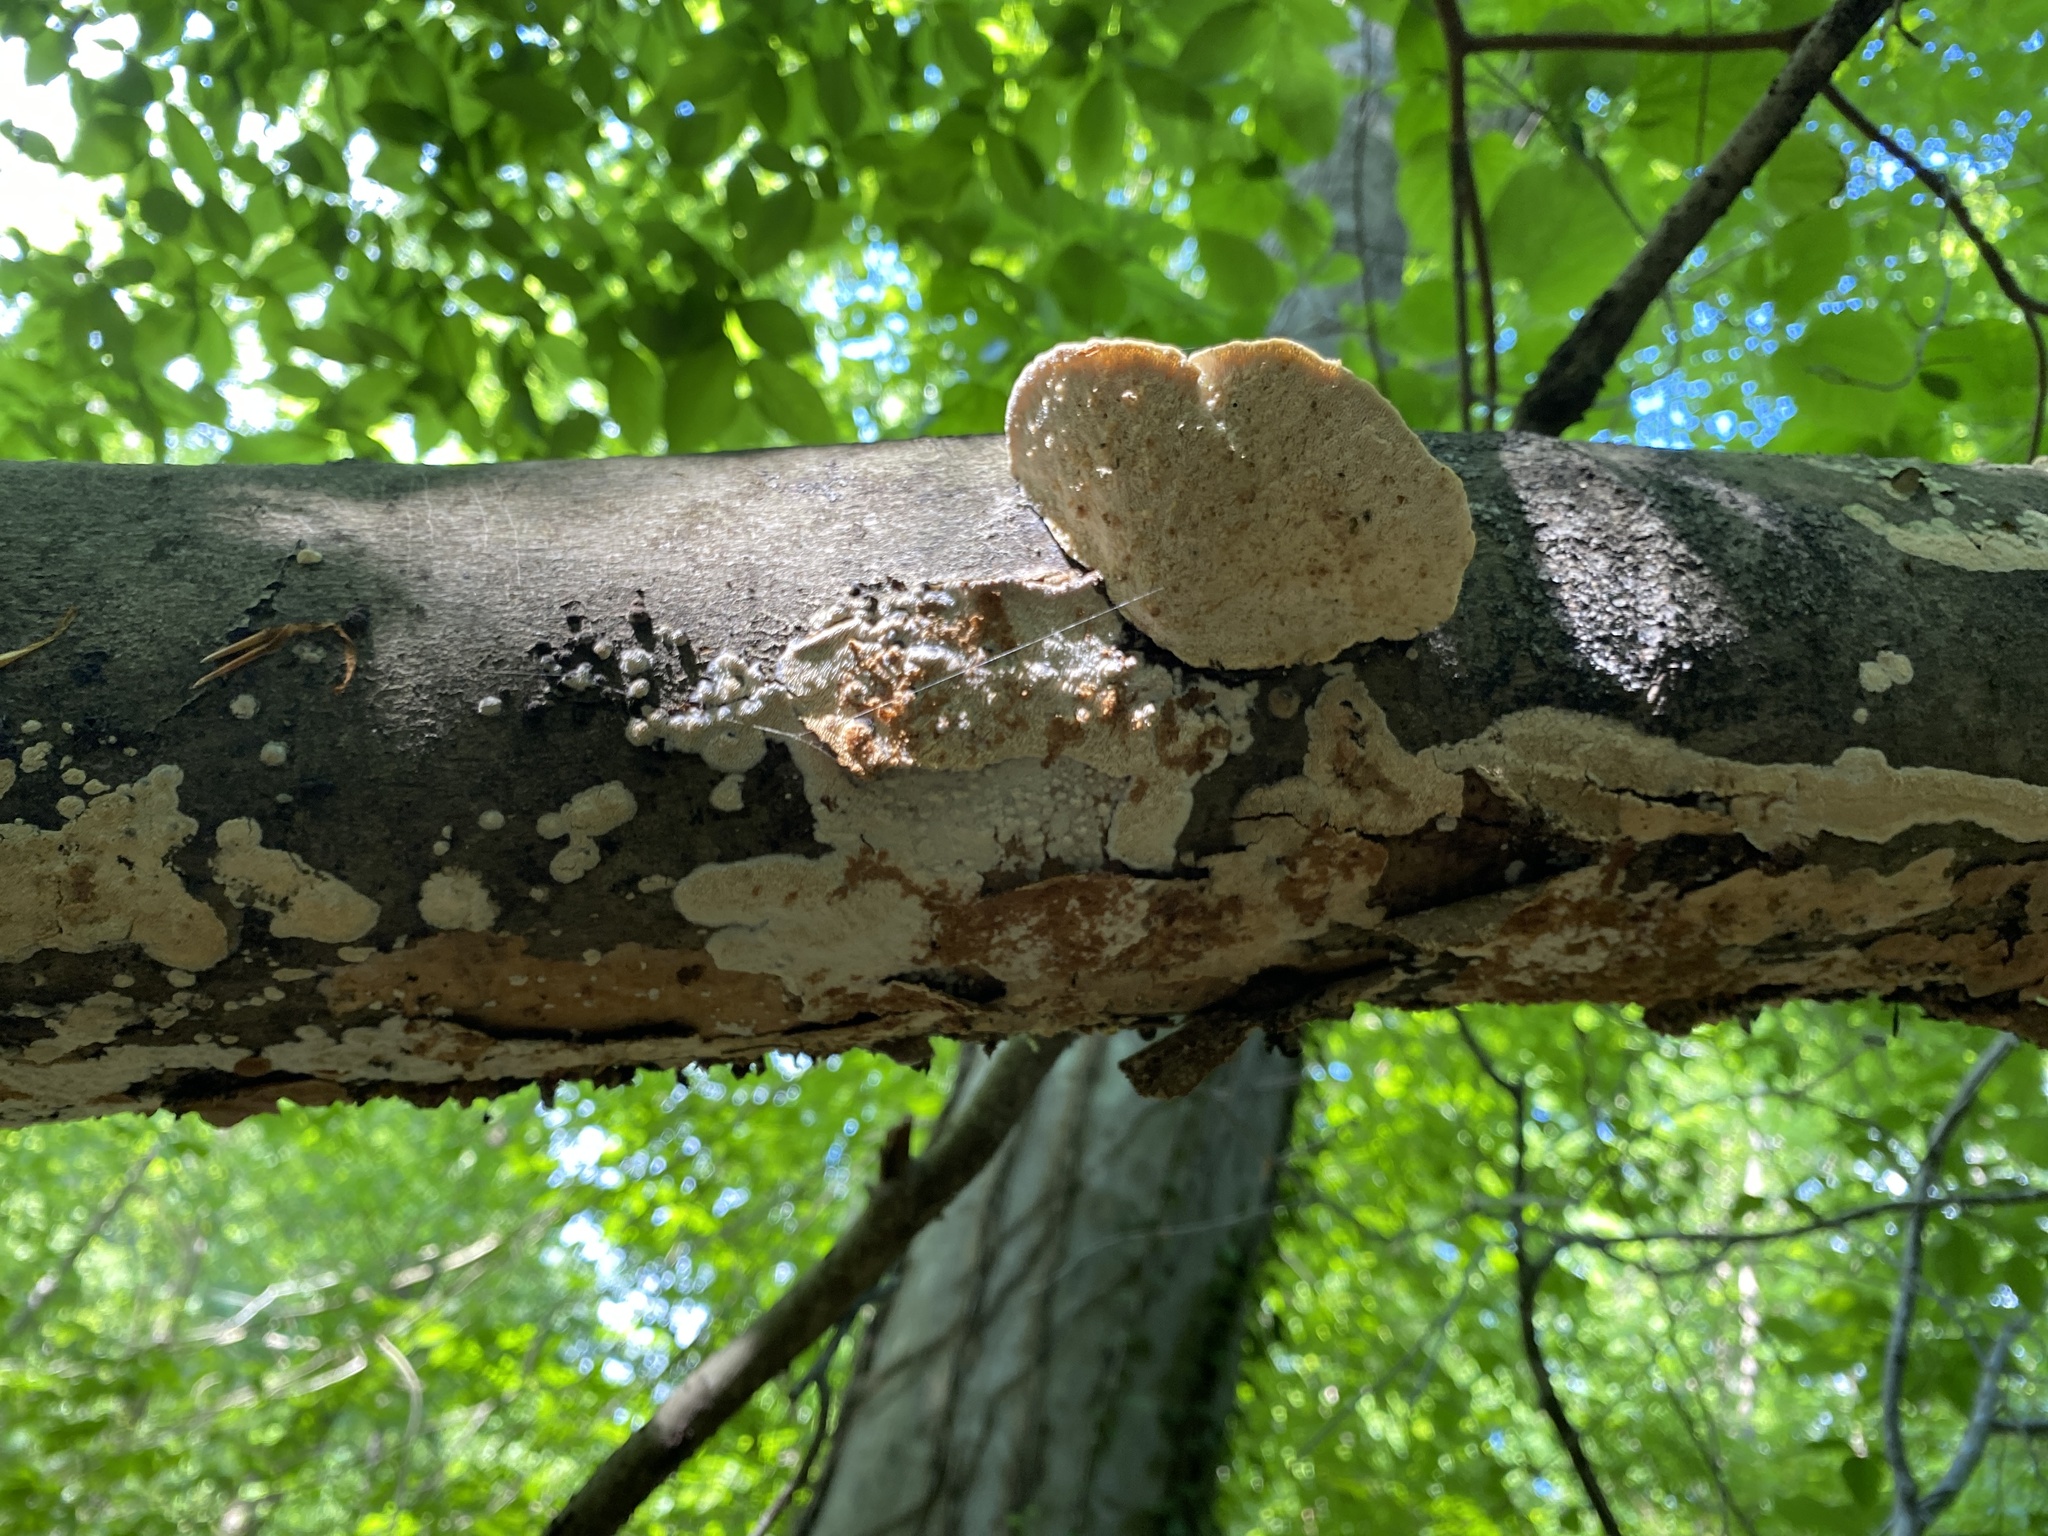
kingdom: Fungi
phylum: Basidiomycota
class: Agaricomycetes
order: Polyporales
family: Polyporaceae
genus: Trametes
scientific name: Trametes gibbosa
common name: Lumpy bracket
